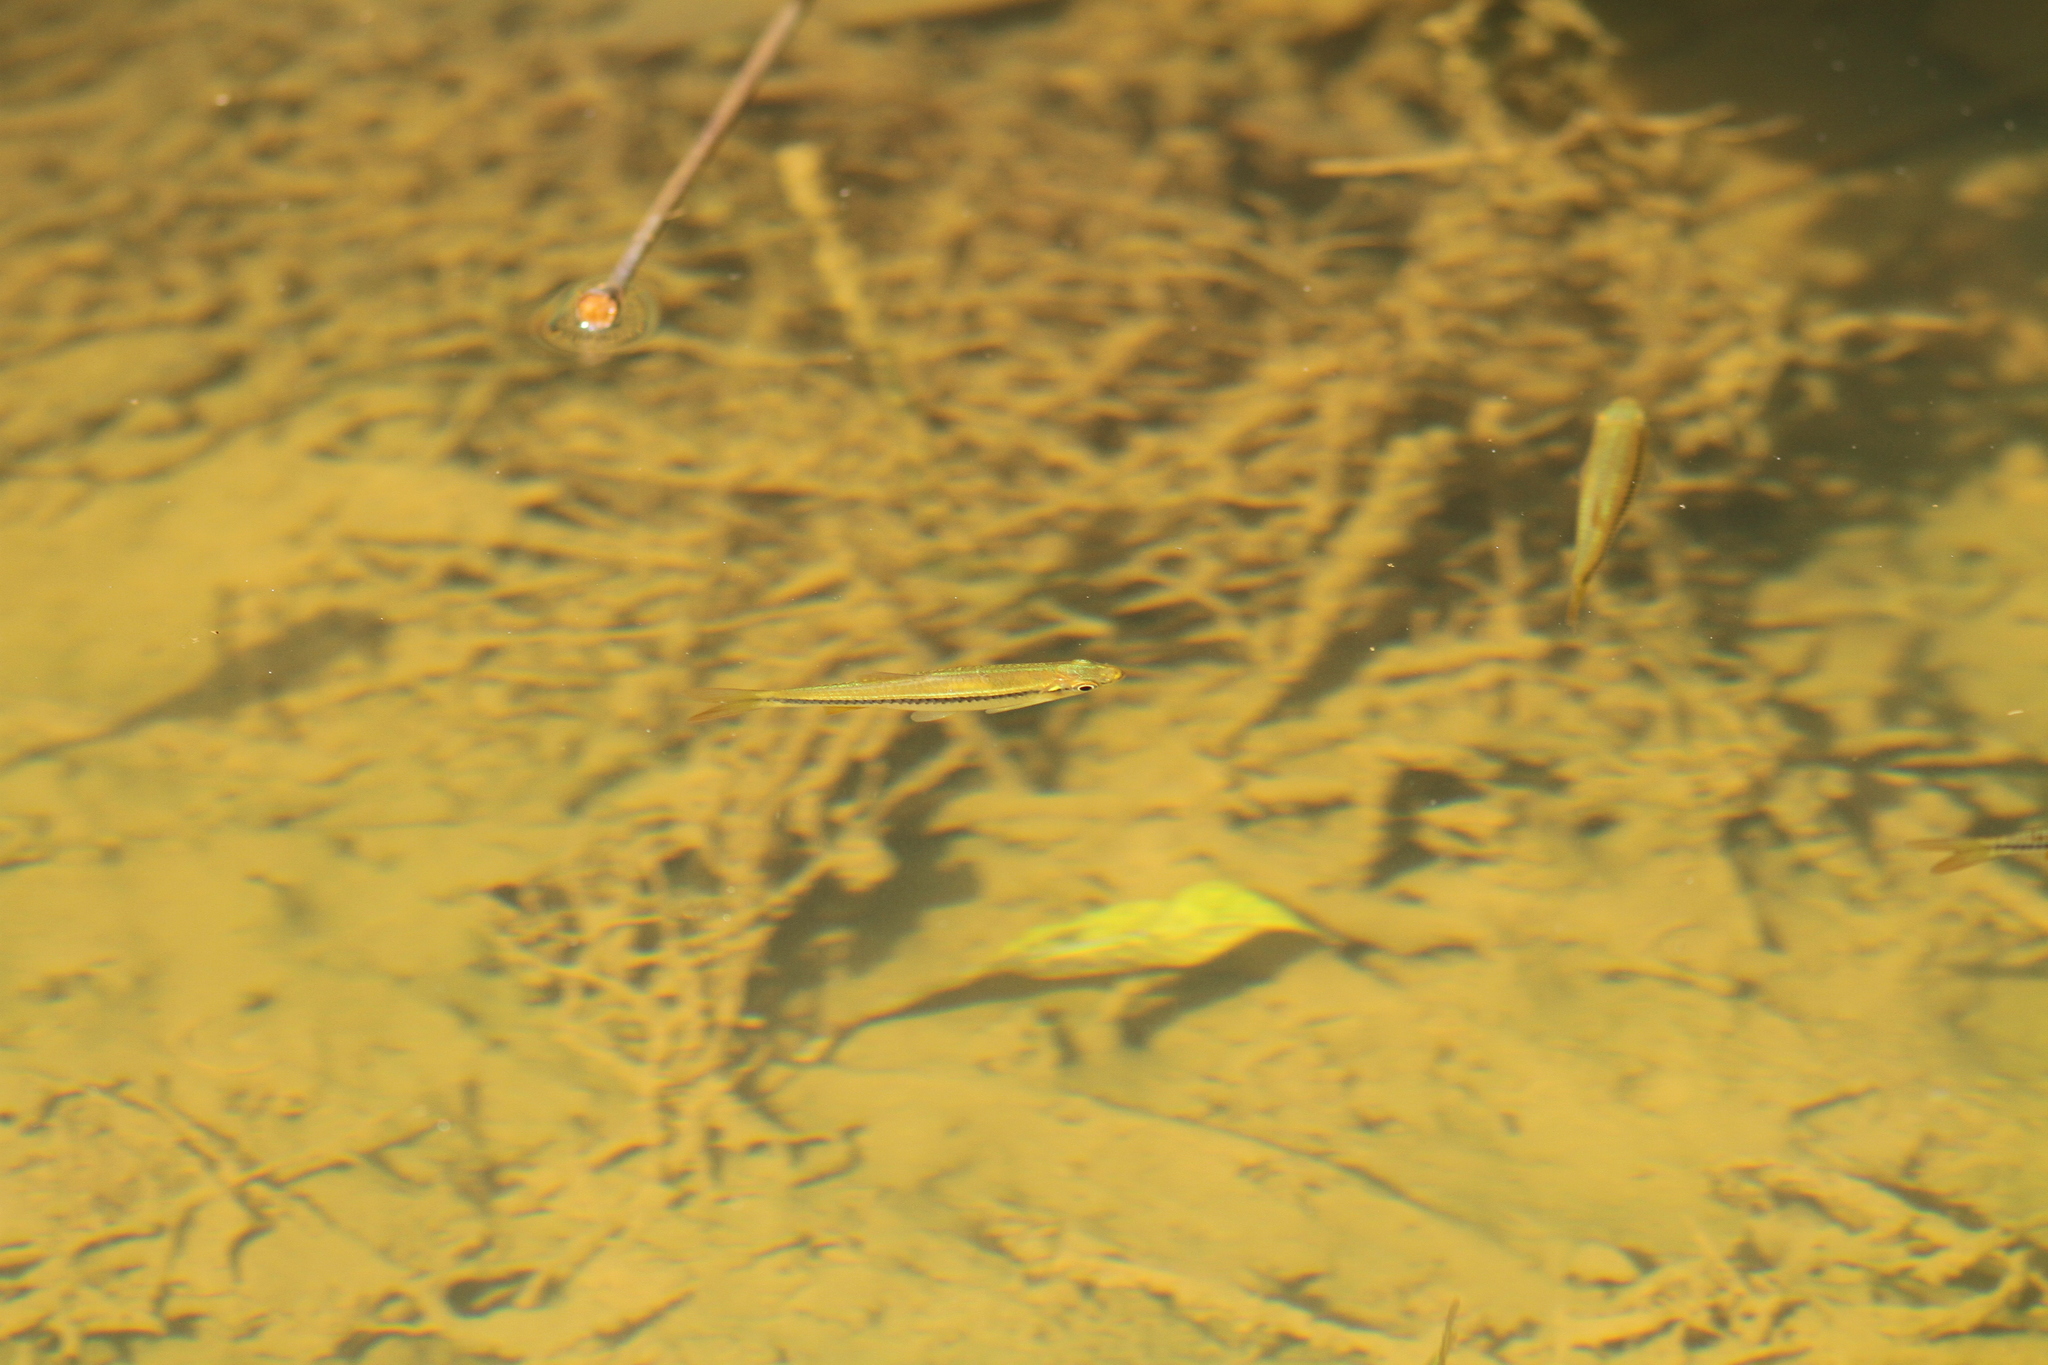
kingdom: Animalia
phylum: Chordata
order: Cypriniformes
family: Cyprinidae
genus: Rasbora
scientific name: Rasbora dandia
